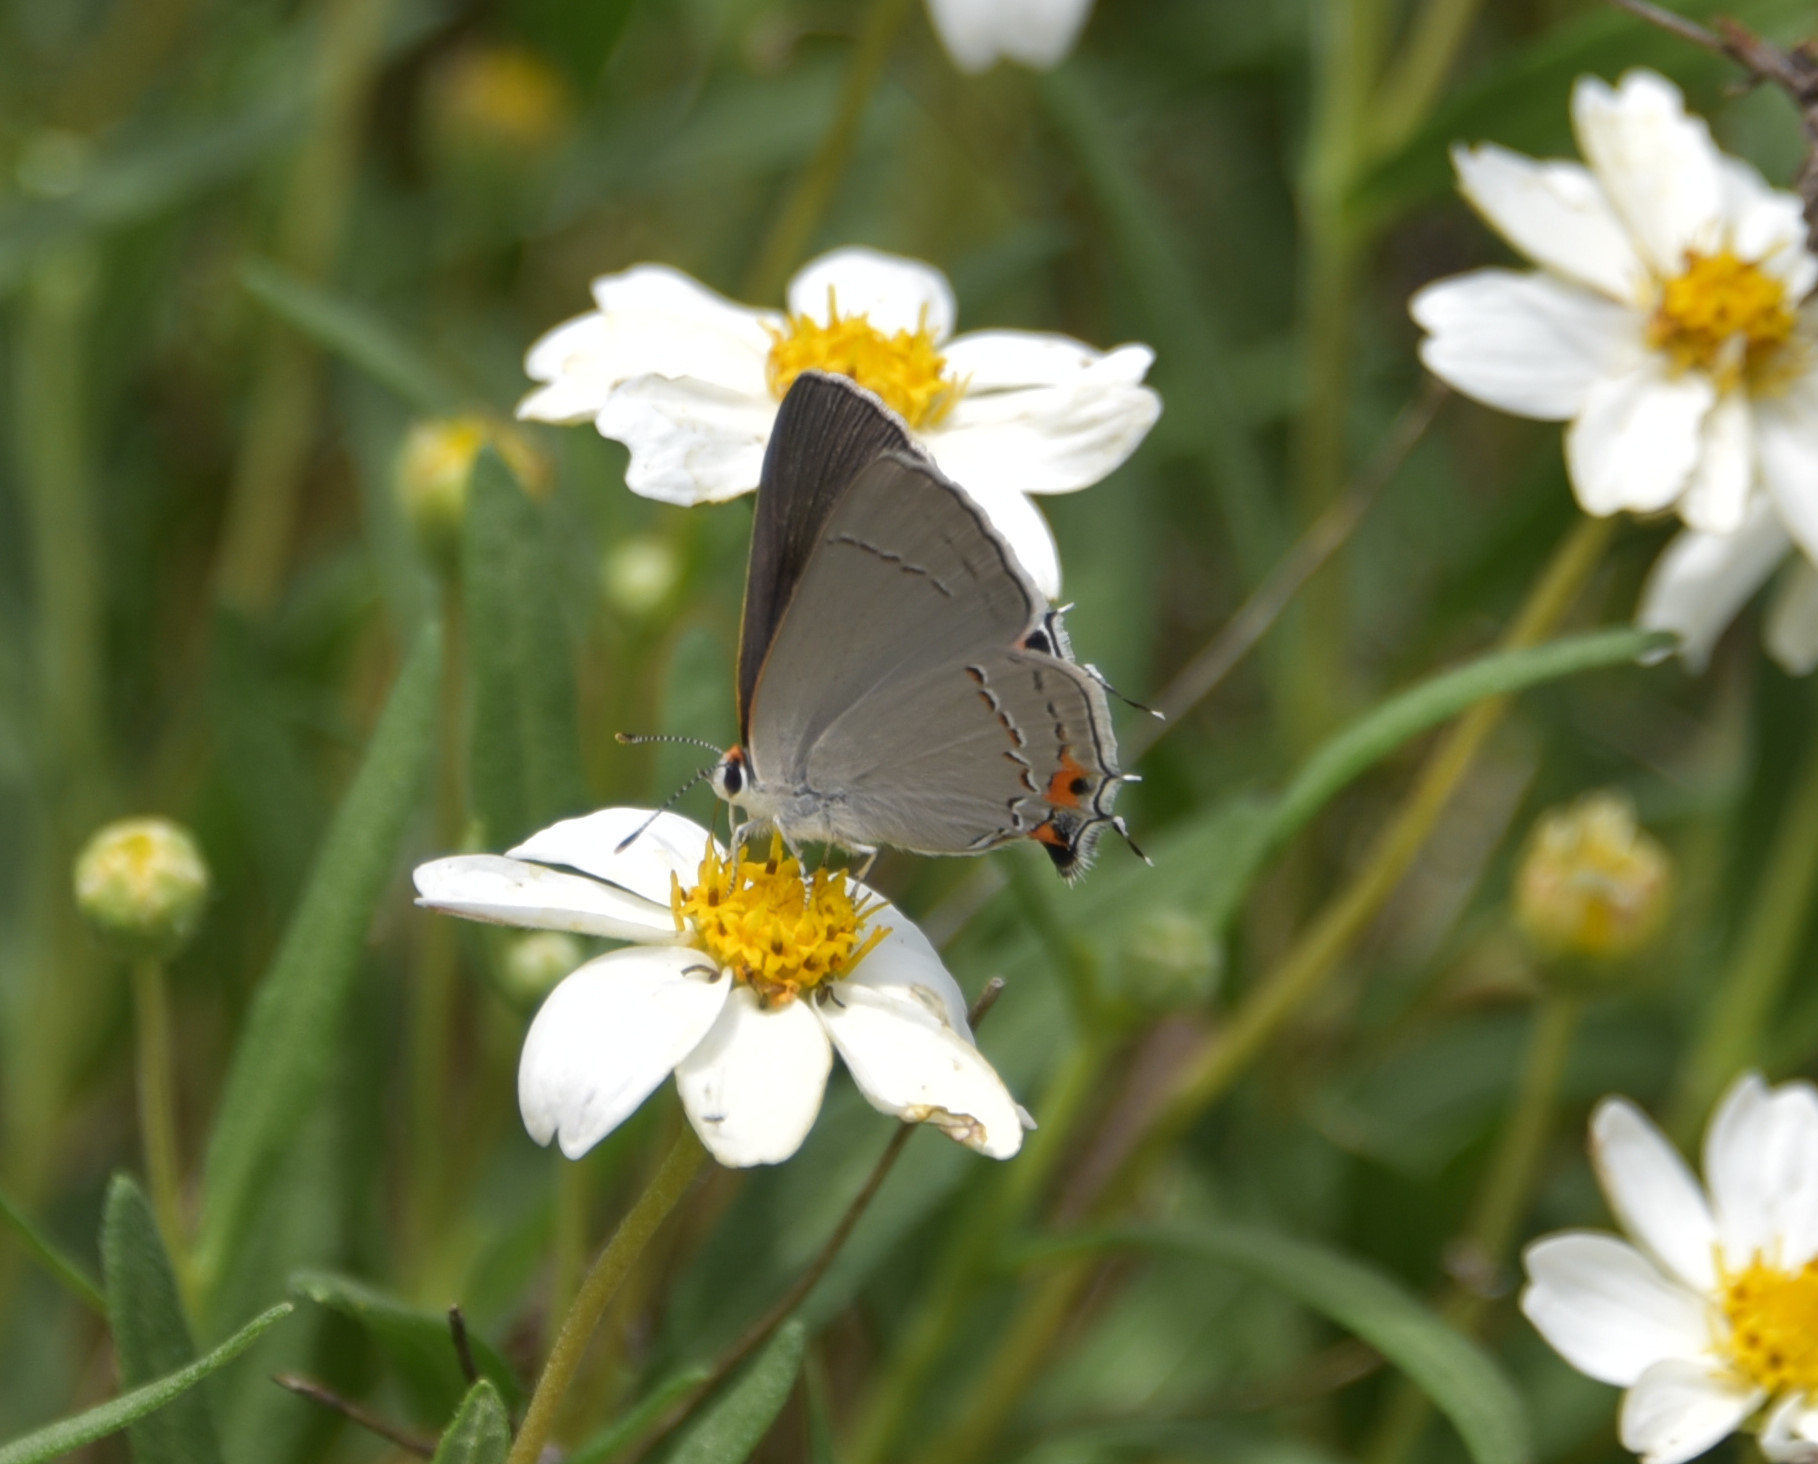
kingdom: Animalia
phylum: Arthropoda
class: Insecta
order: Lepidoptera
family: Lycaenidae
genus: Strymon
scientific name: Strymon melinus
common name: Gray hairstreak
